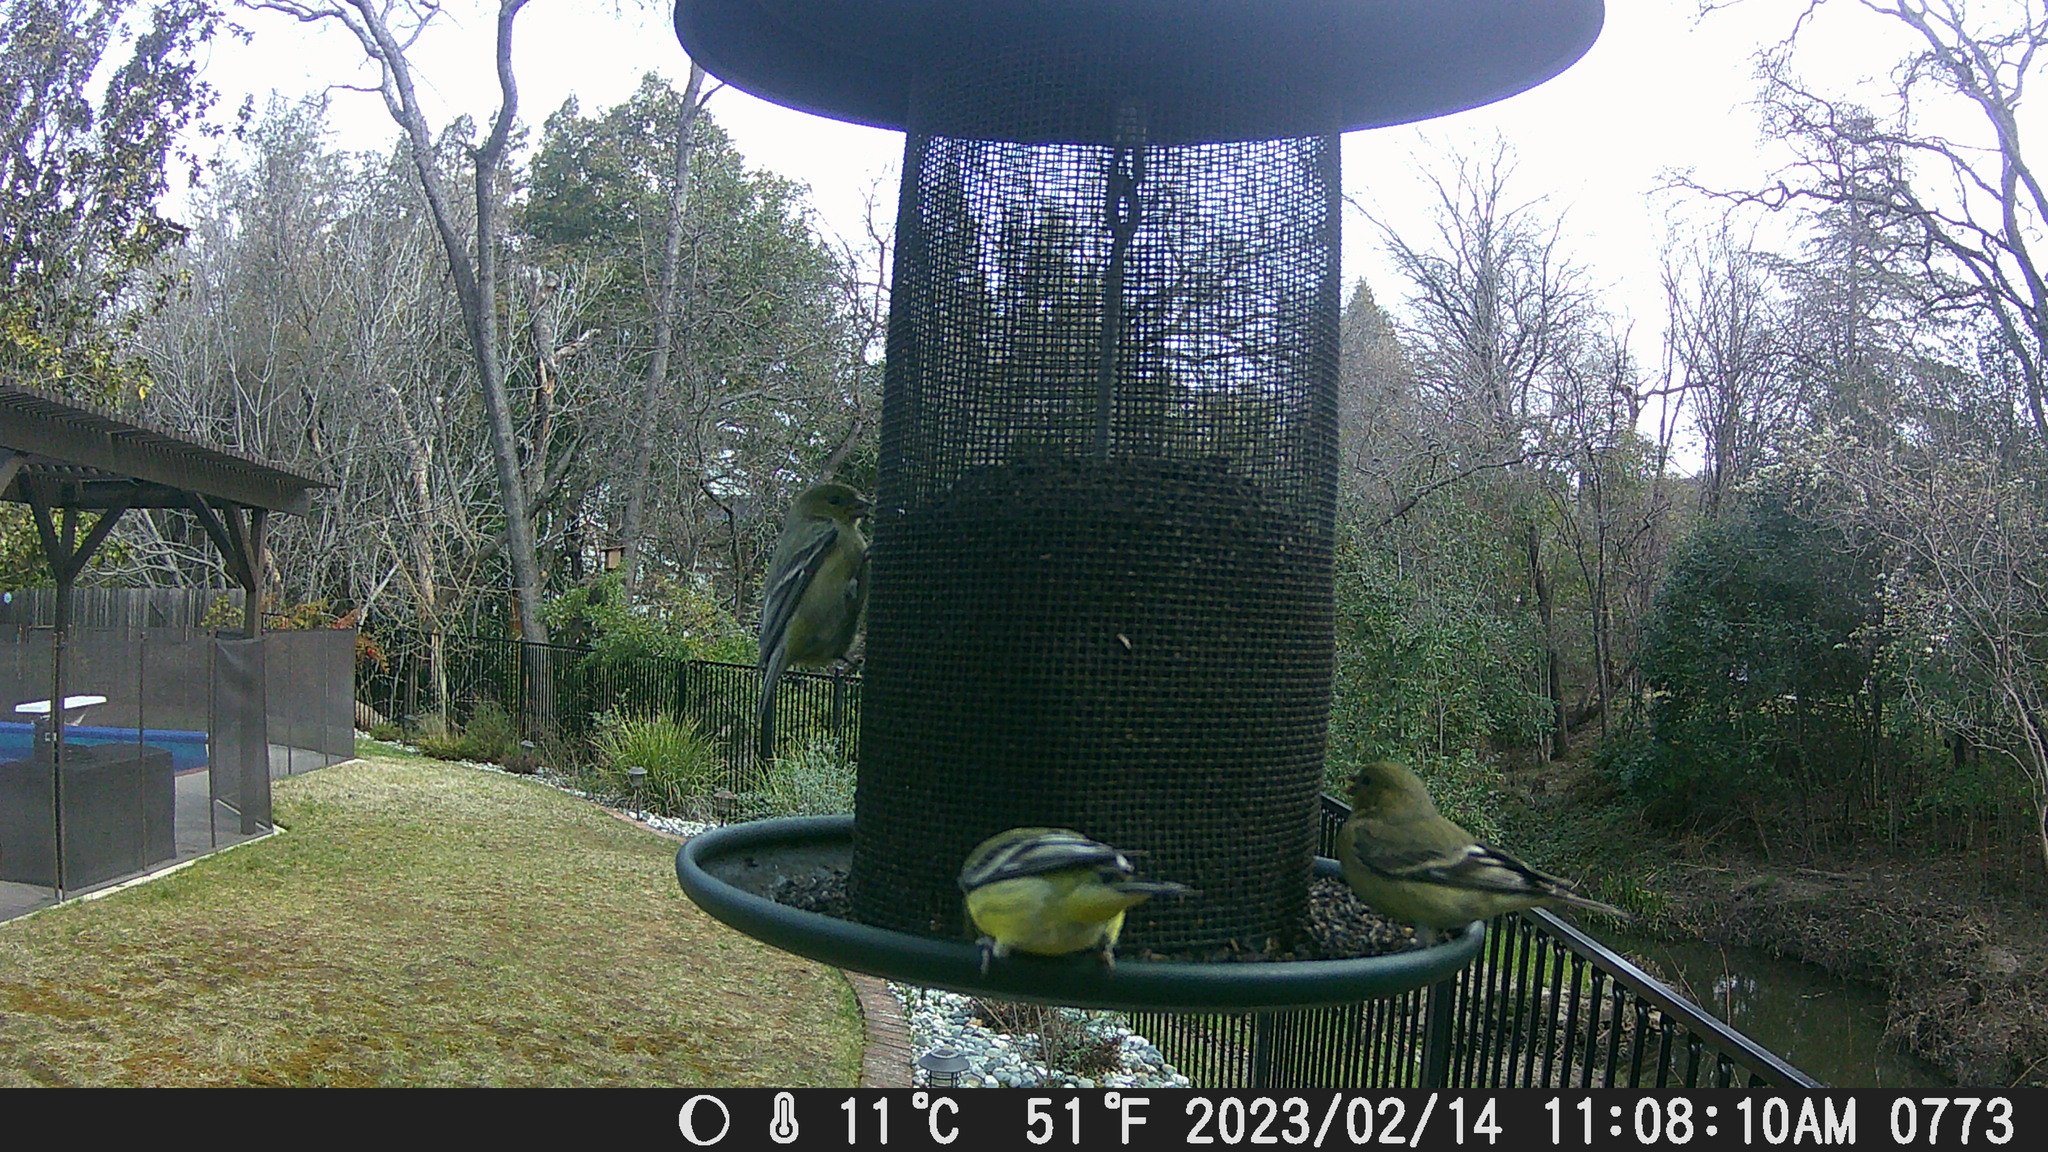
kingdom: Animalia
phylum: Chordata
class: Aves
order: Passeriformes
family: Fringillidae
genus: Spinus
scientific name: Spinus psaltria
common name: Lesser goldfinch
